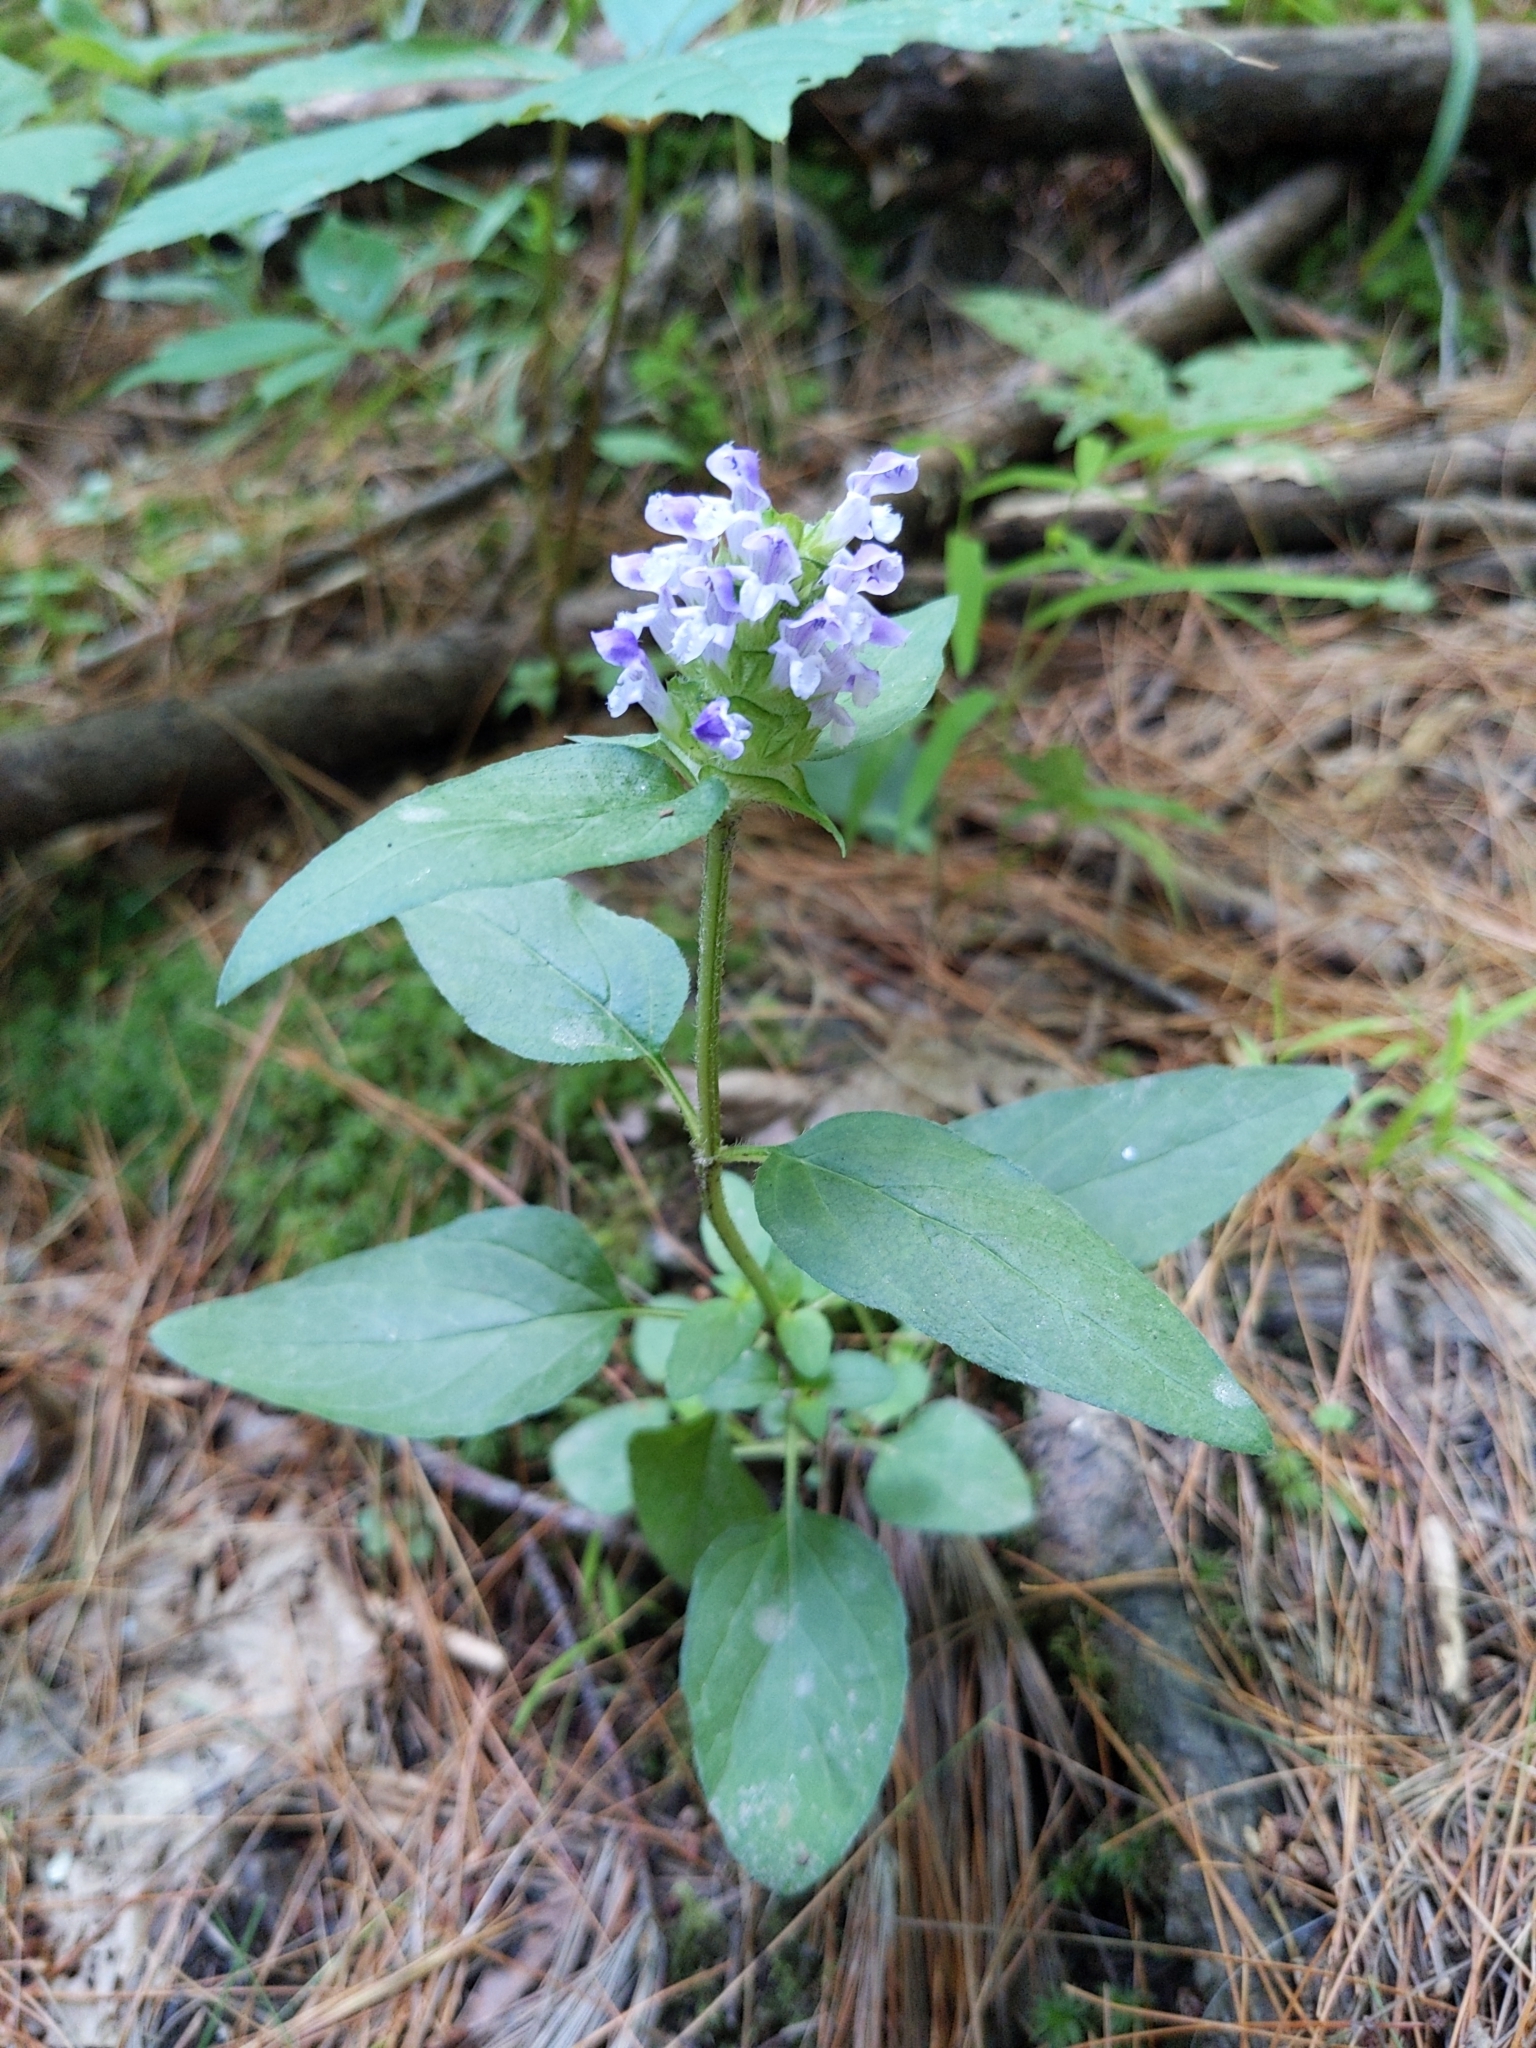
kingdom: Plantae
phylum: Tracheophyta
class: Magnoliopsida
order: Lamiales
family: Lamiaceae
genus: Prunella
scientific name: Prunella vulgaris
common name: Heal-all
